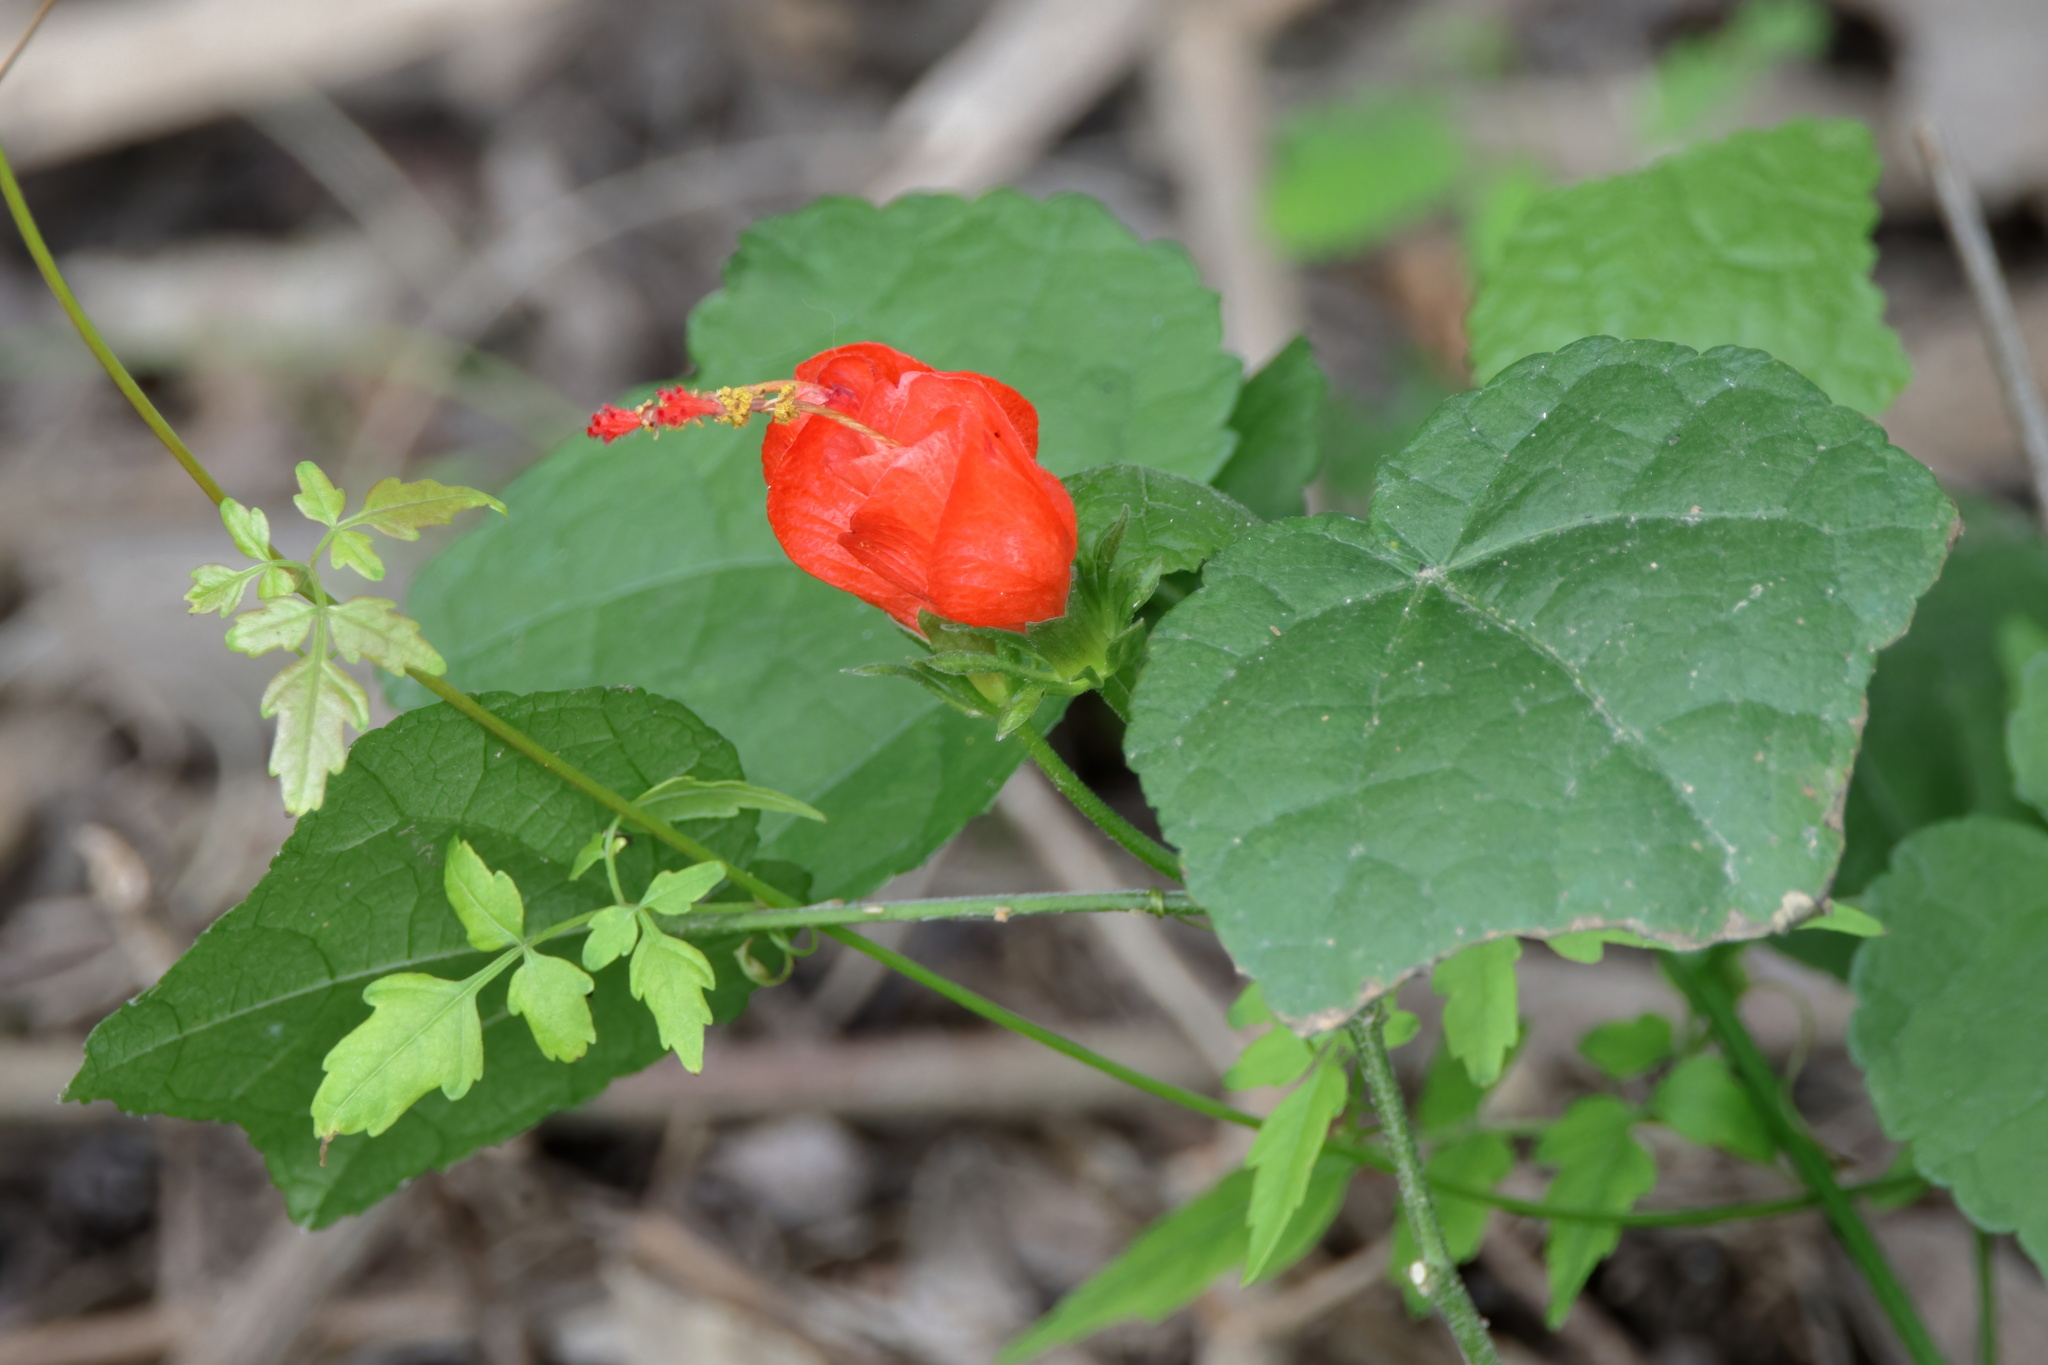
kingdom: Plantae
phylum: Tracheophyta
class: Magnoliopsida
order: Malvales
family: Malvaceae
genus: Malvaviscus
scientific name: Malvaviscus arboreus
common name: Wax mallow
